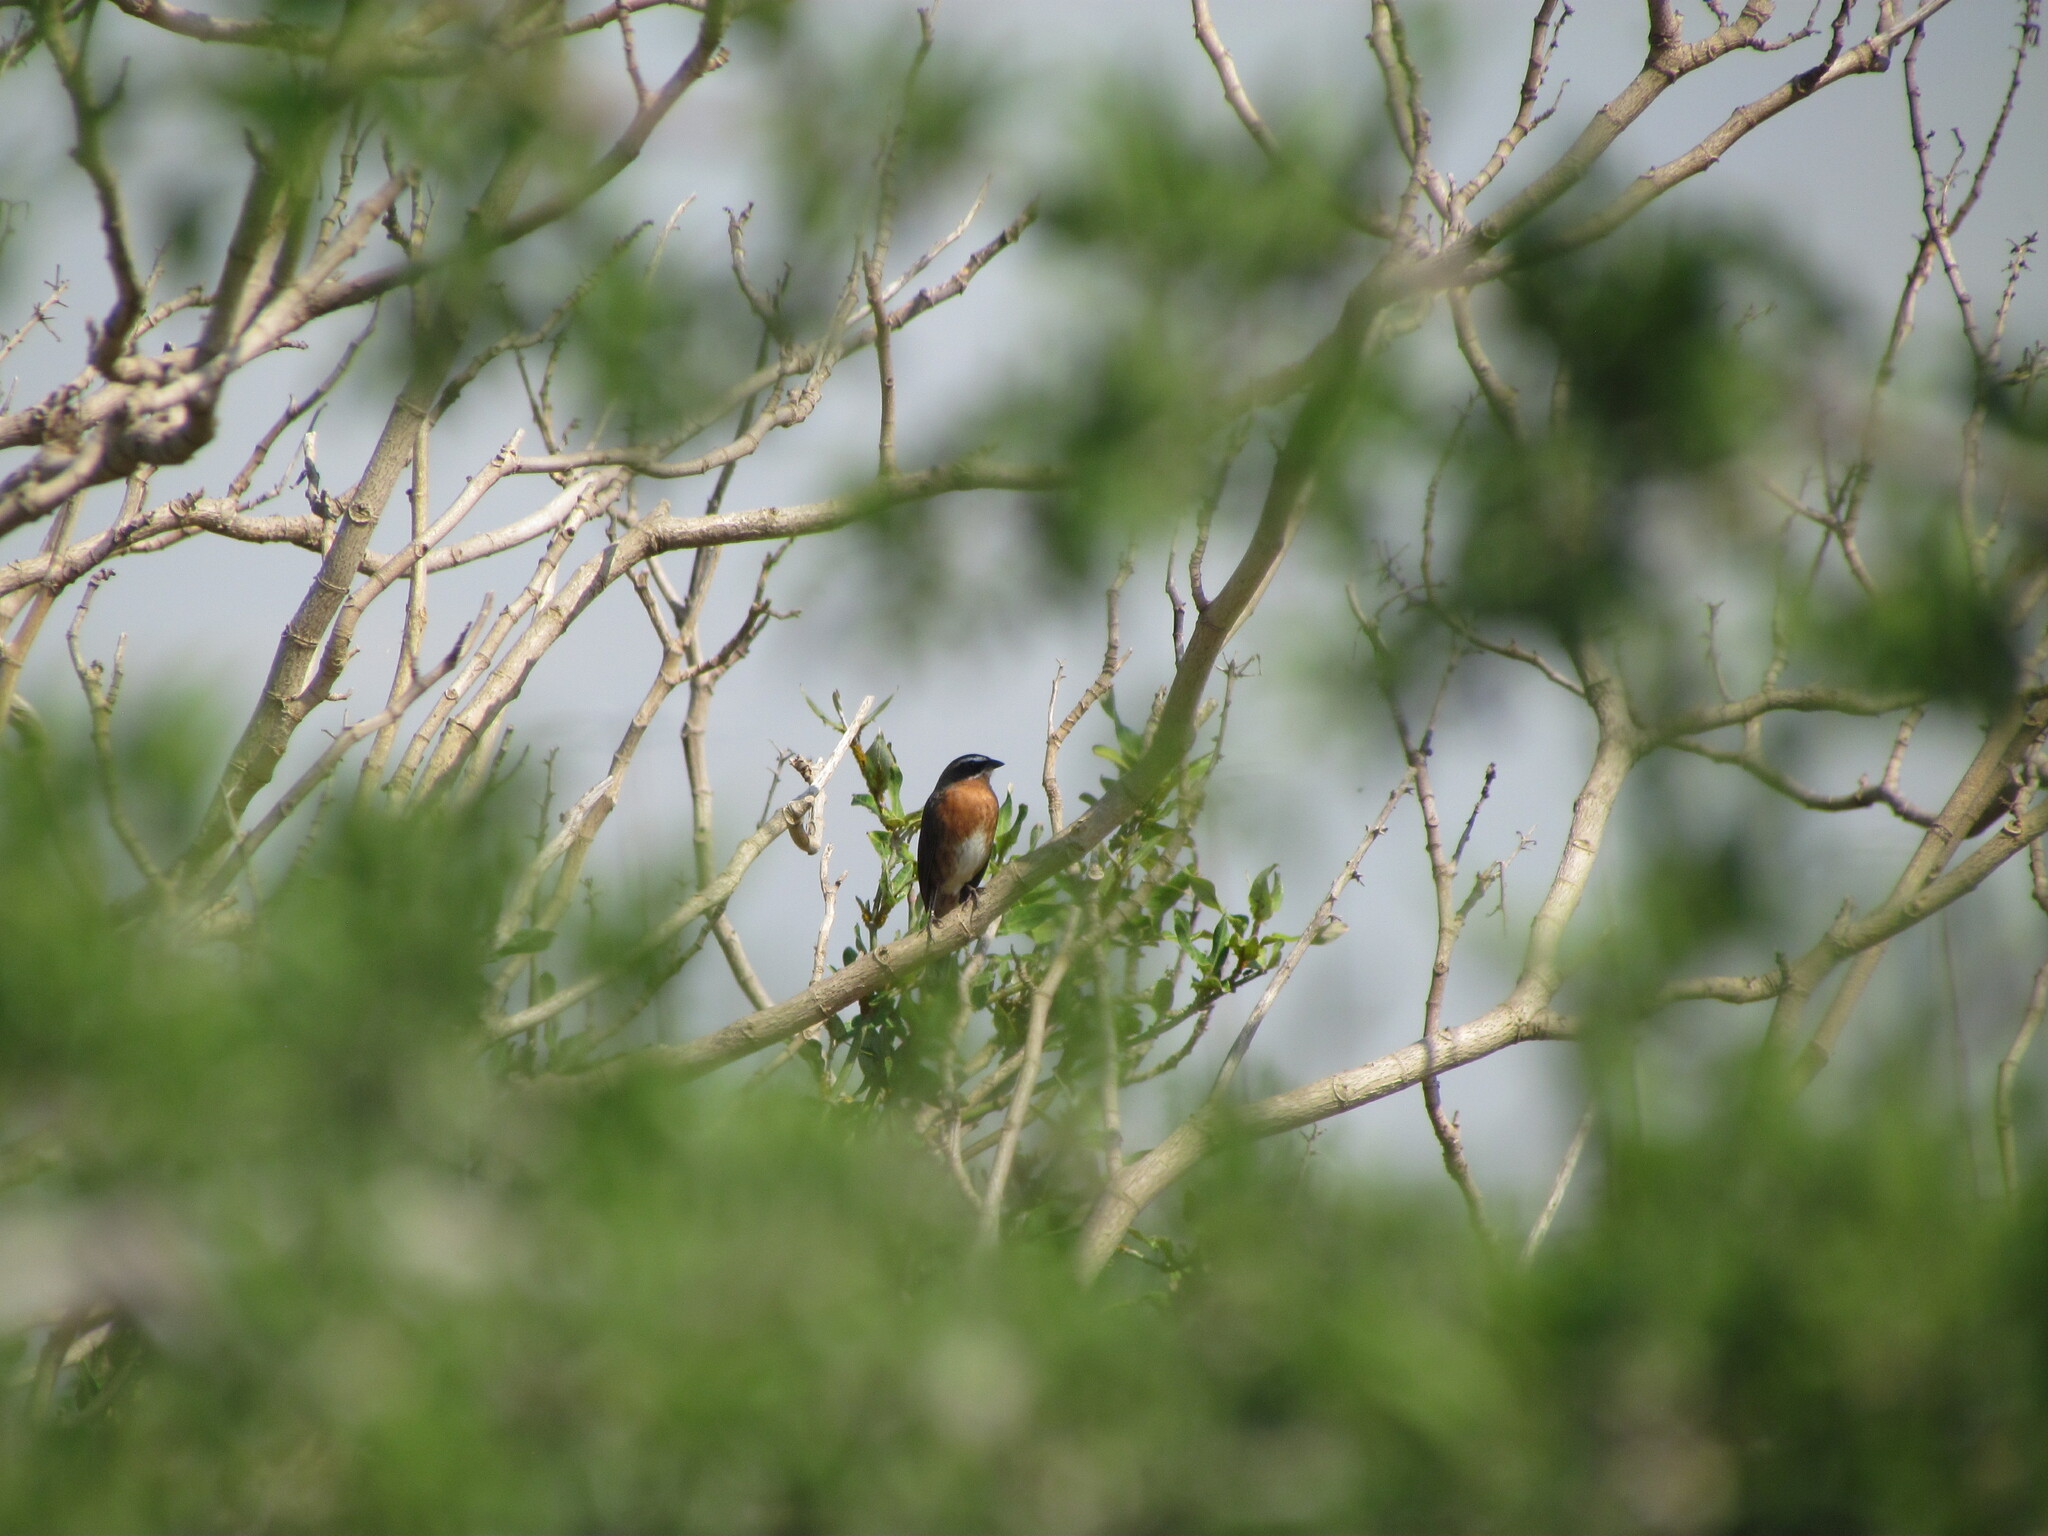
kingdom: Animalia
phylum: Chordata
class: Aves
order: Passeriformes
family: Thraupidae
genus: Poospiza
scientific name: Poospiza nigrorufa
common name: Black-and-rufous warbling finch
